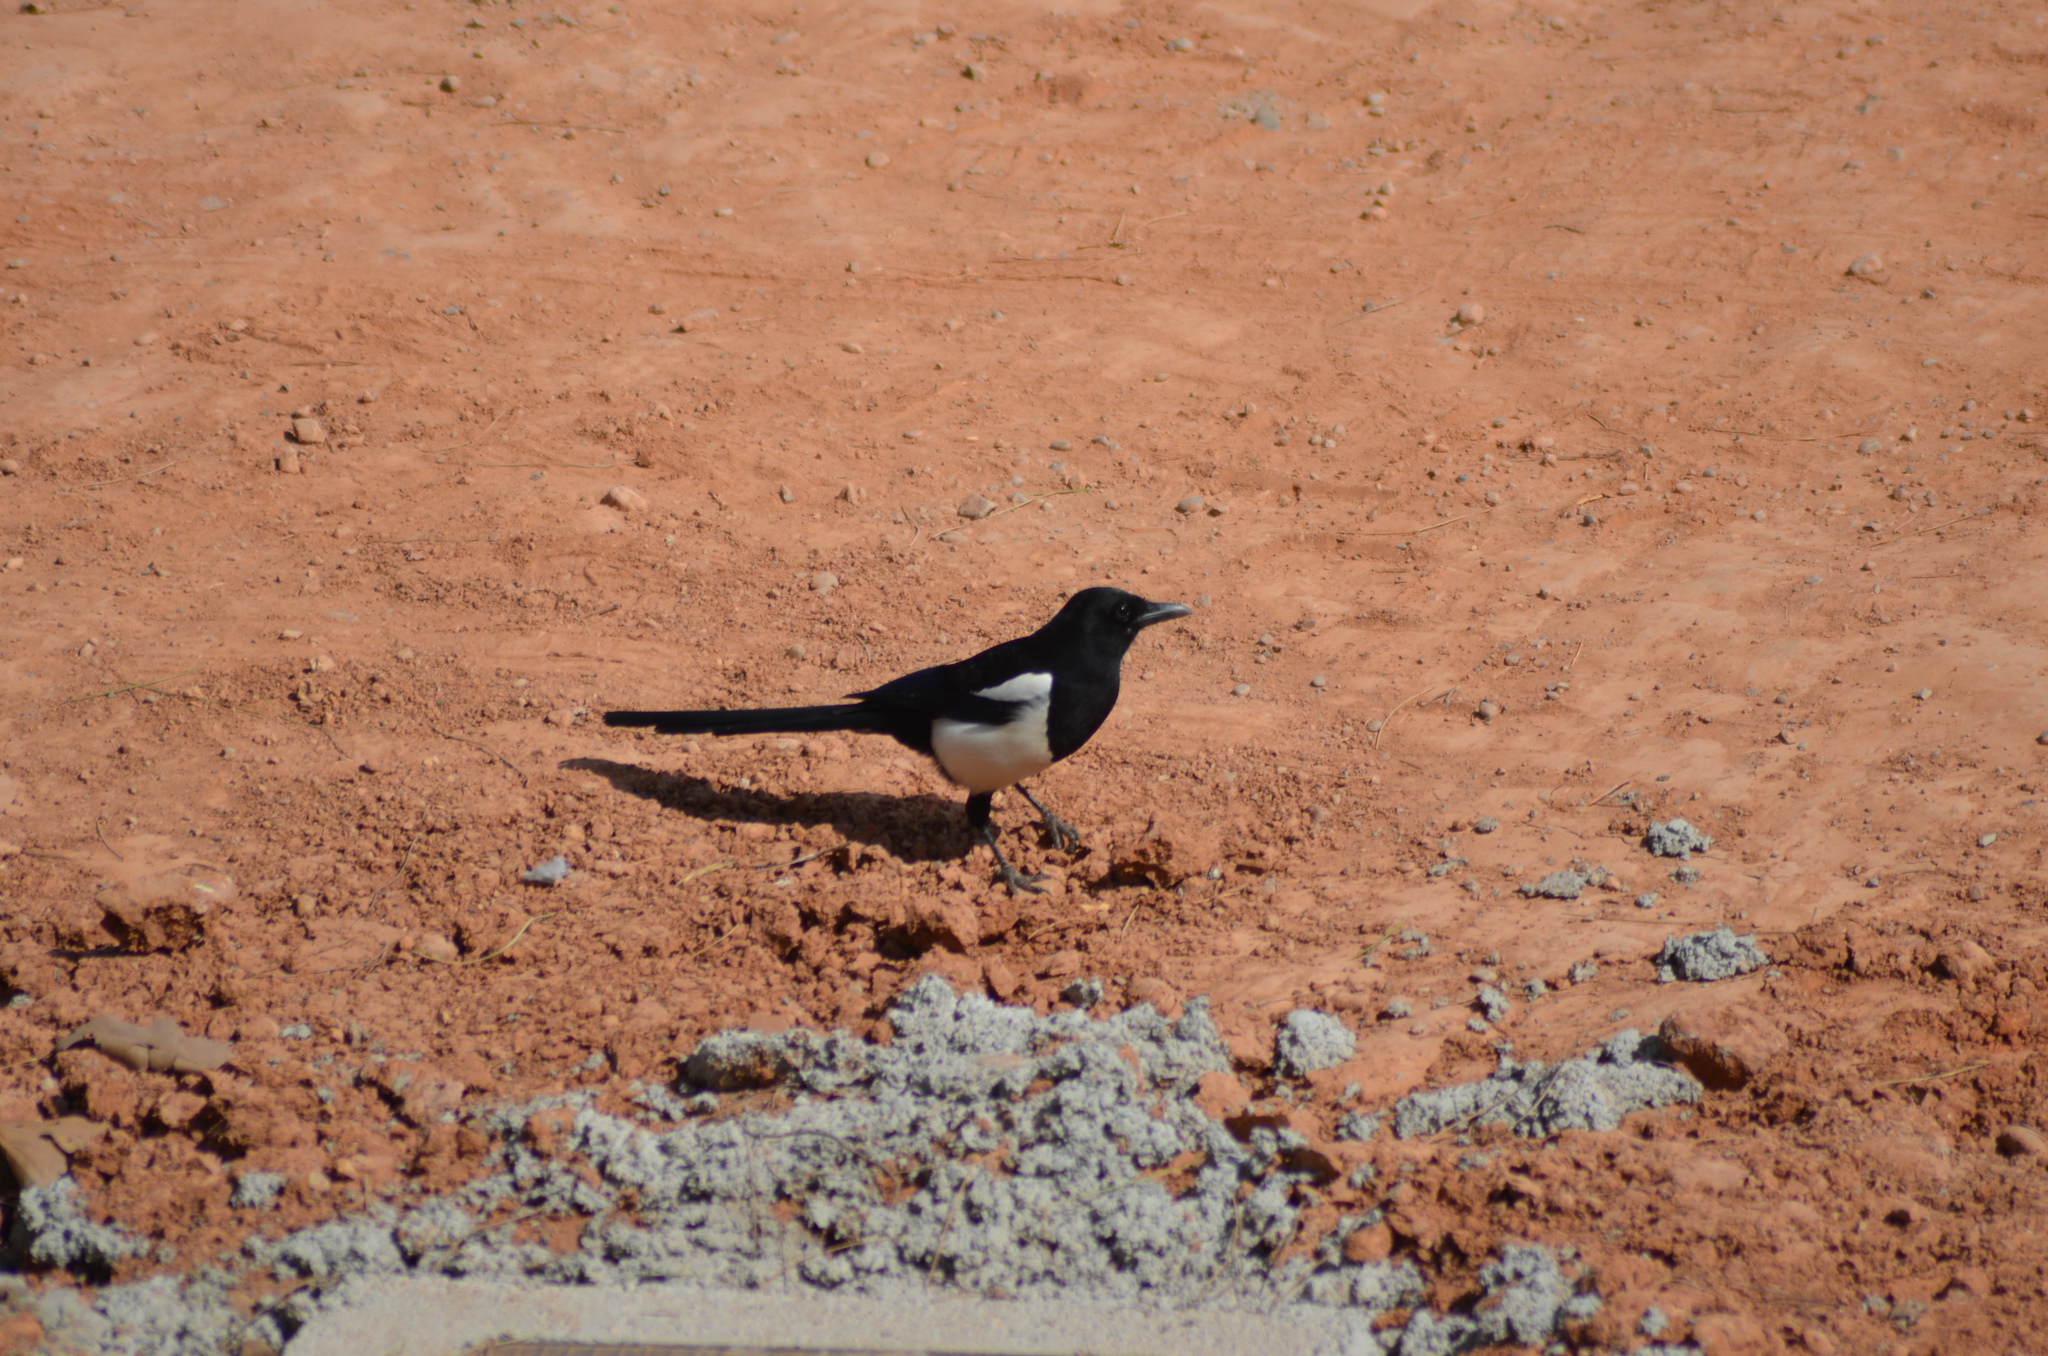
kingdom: Animalia
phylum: Chordata
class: Aves
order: Passeriformes
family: Corvidae
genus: Pica
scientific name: Pica pica
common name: Eurasian magpie
